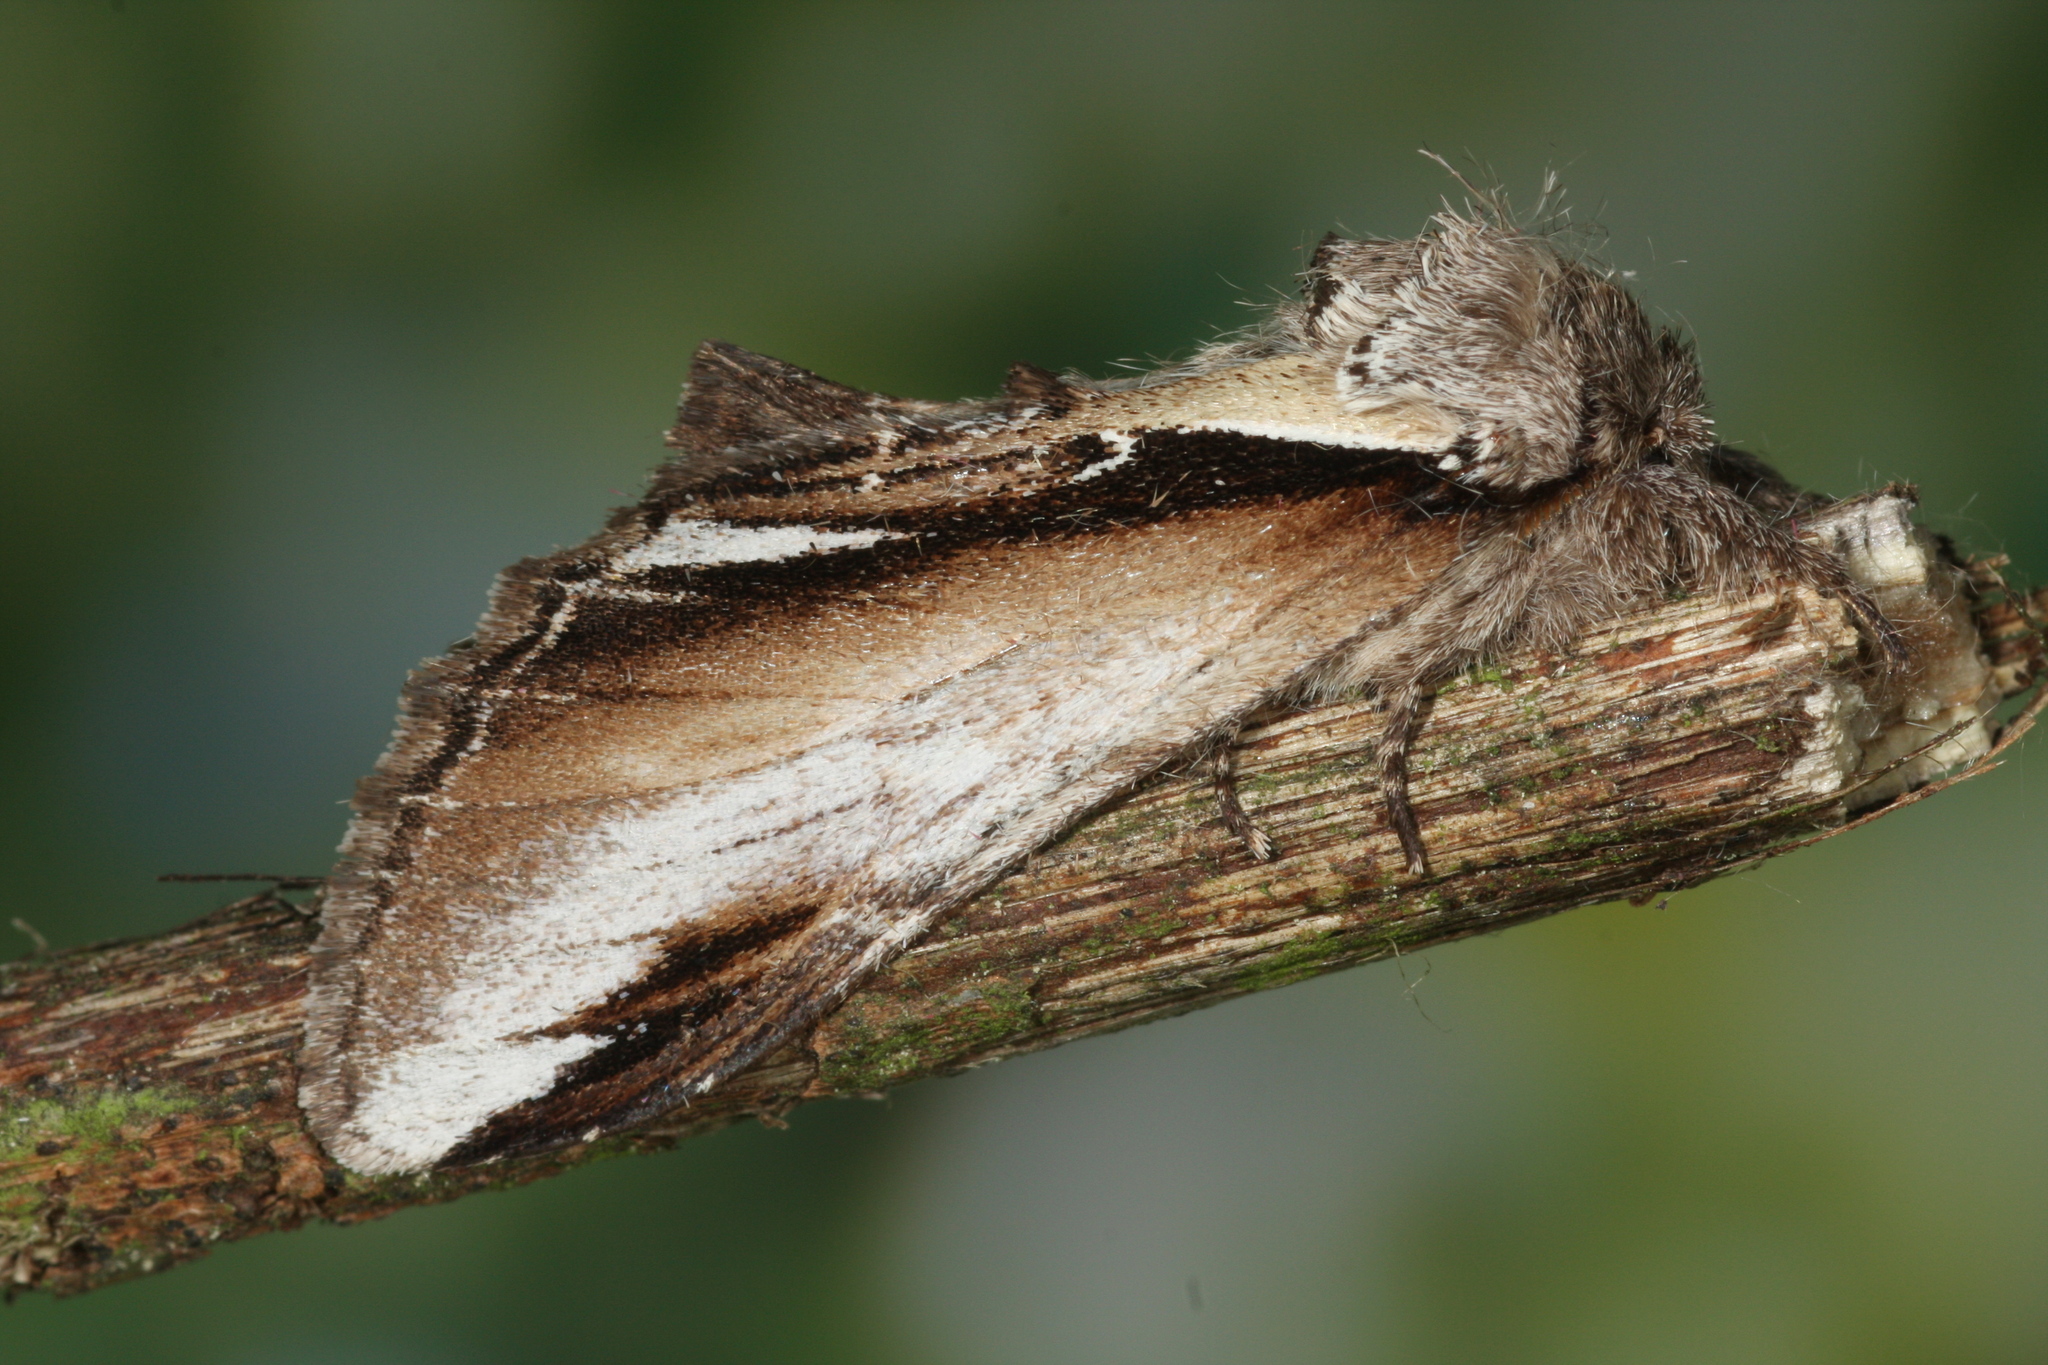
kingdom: Animalia
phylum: Arthropoda
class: Insecta
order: Lepidoptera
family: Notodontidae
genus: Pheosia
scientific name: Pheosia gnoma
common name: Lesser swallow prominent
